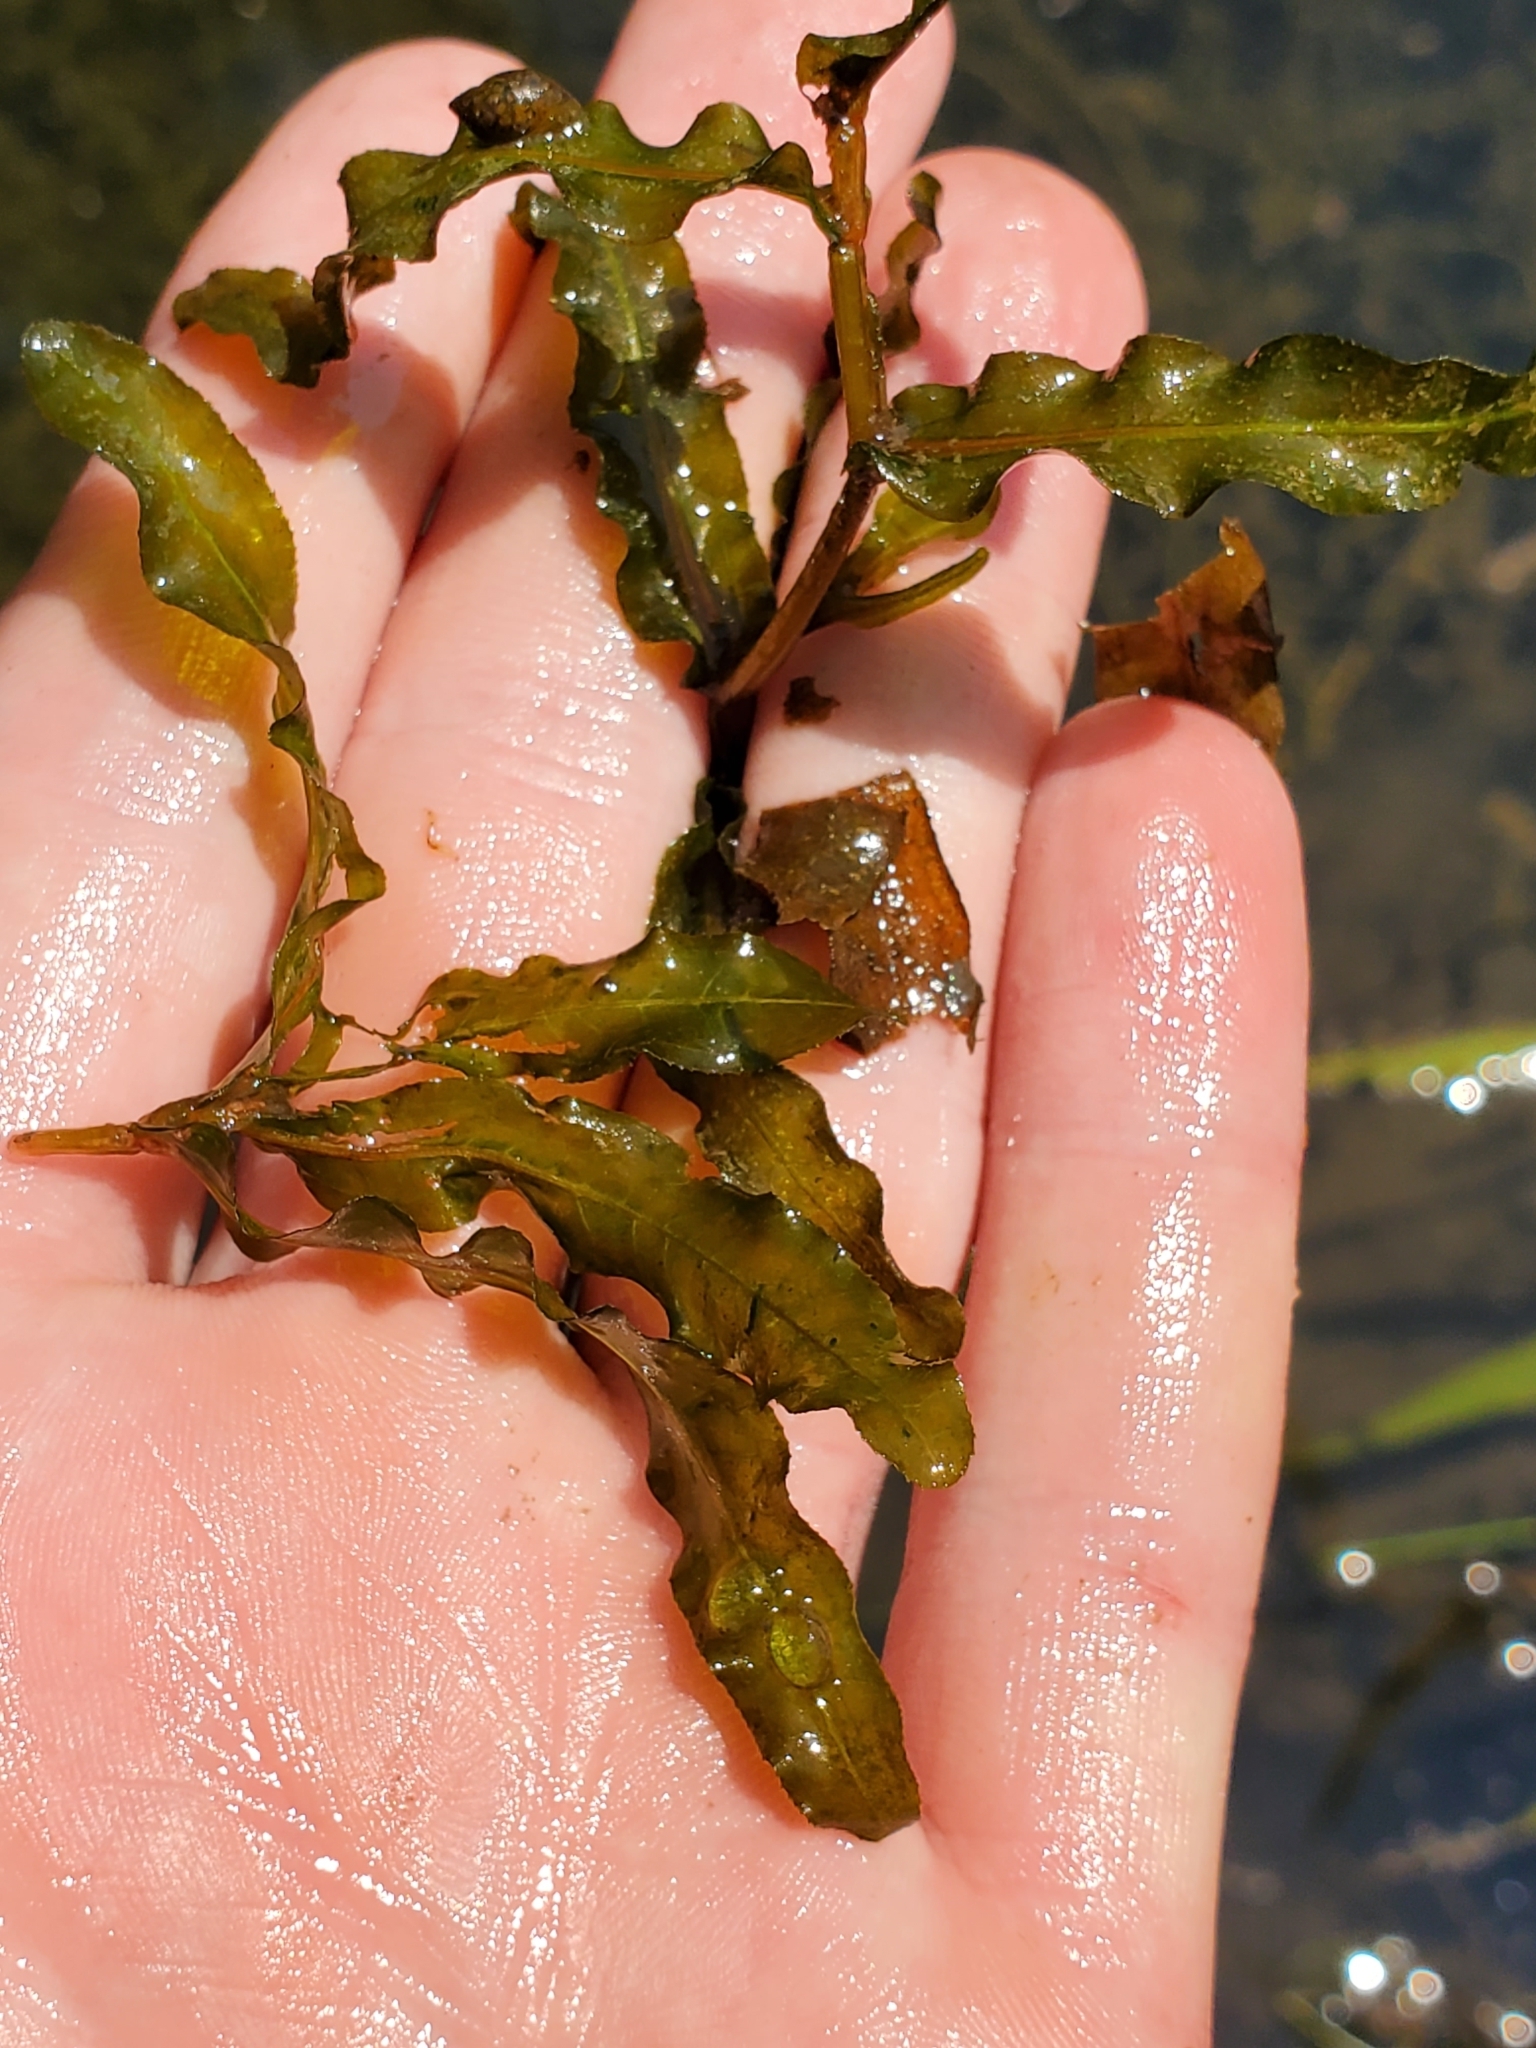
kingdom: Plantae
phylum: Tracheophyta
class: Liliopsida
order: Alismatales
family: Potamogetonaceae
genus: Potamogeton
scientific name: Potamogeton crispus
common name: Curled pondweed
